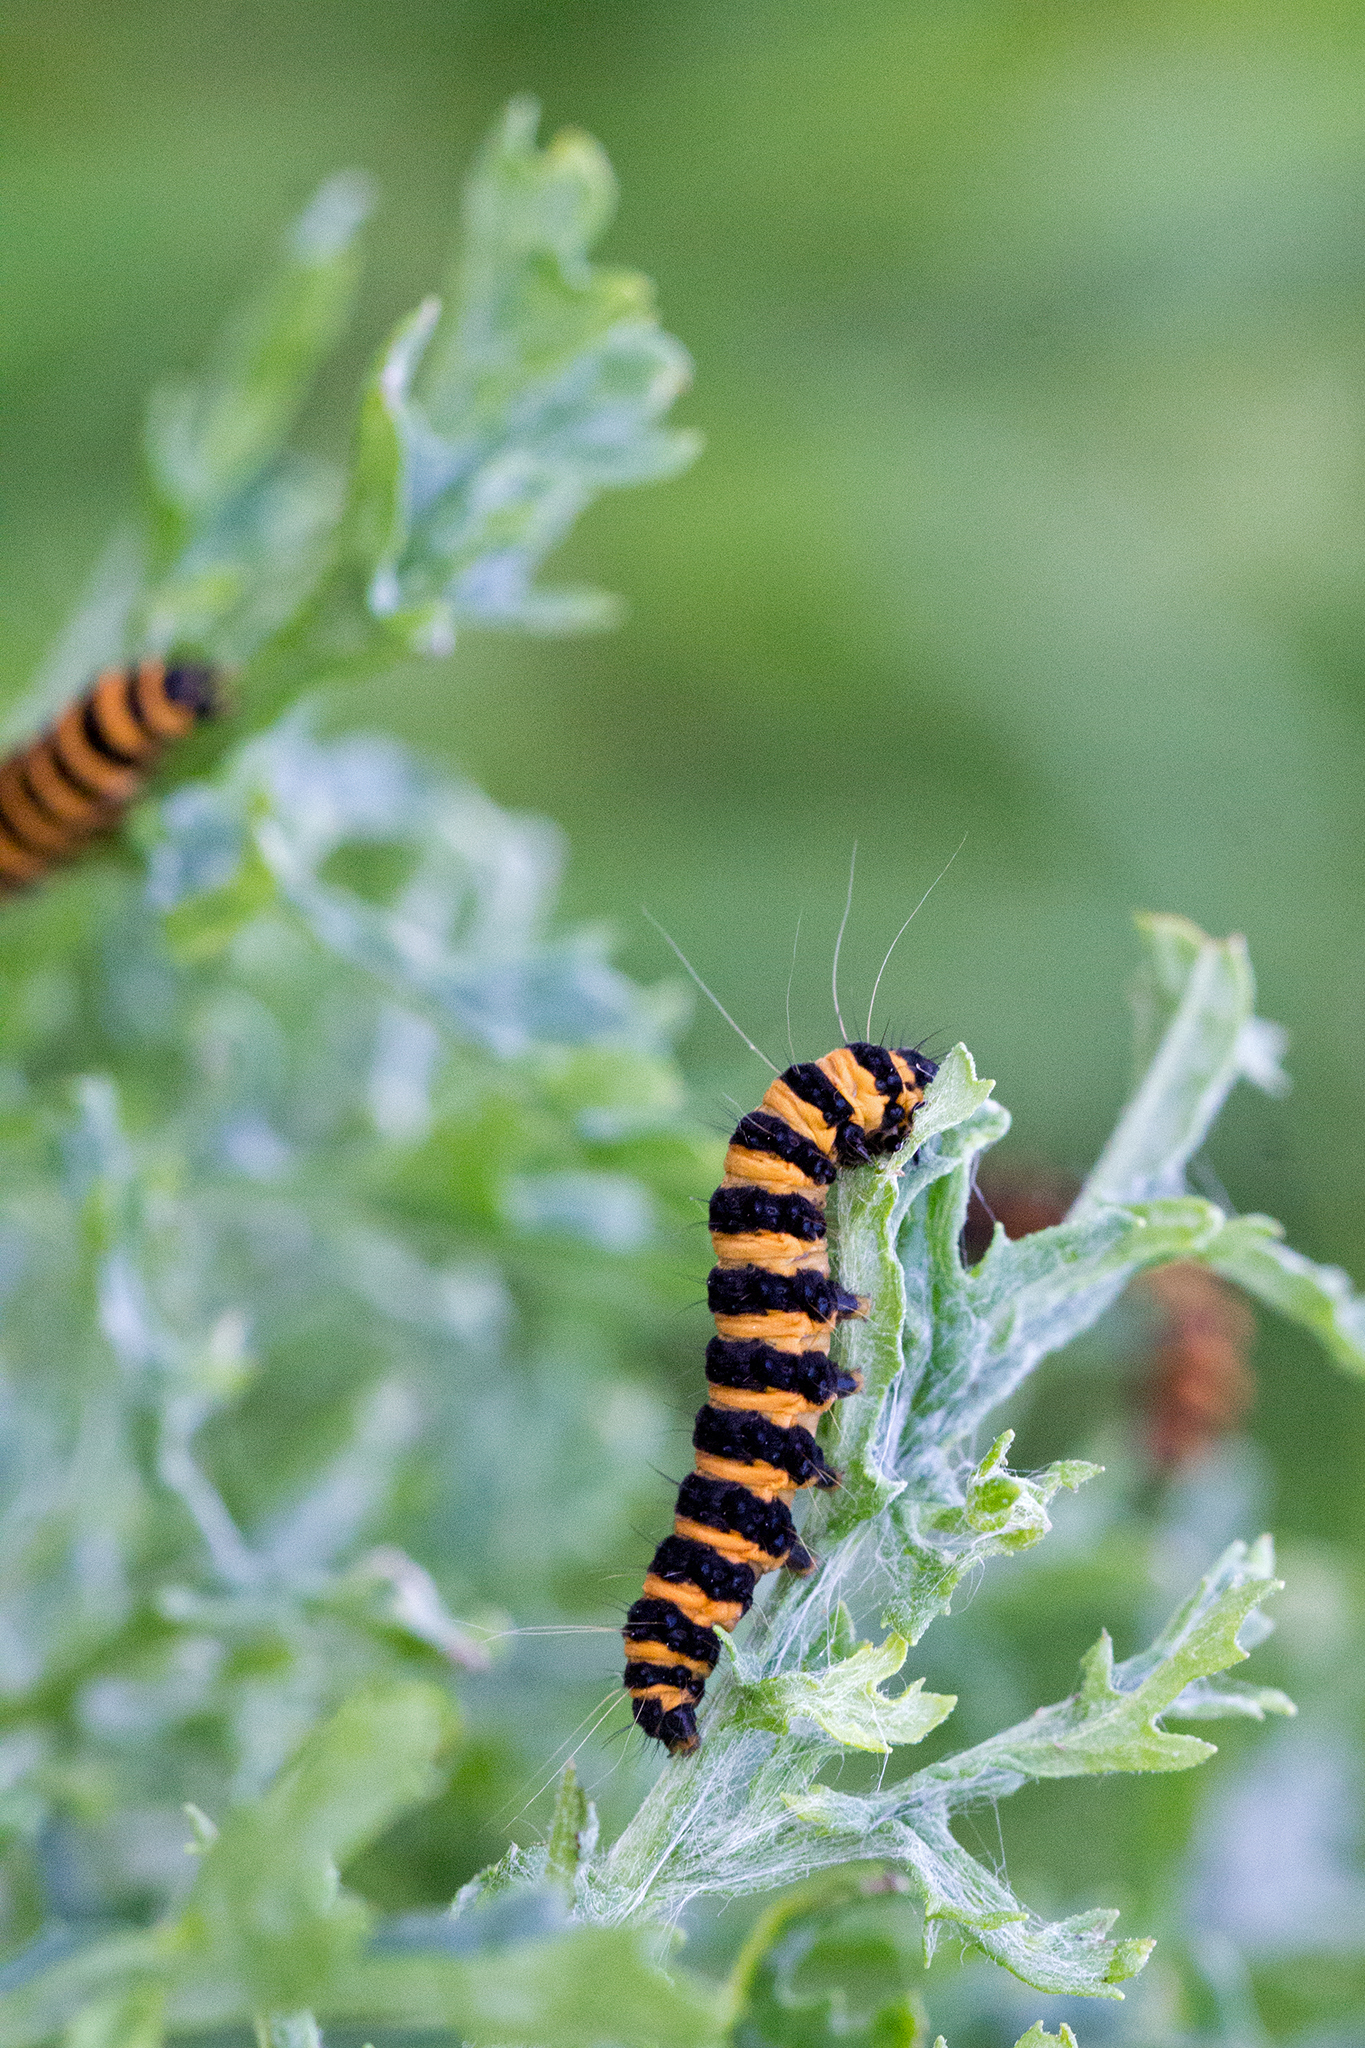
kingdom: Animalia
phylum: Arthropoda
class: Insecta
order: Lepidoptera
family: Erebidae
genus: Tyria
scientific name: Tyria jacobaeae
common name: Cinnabar
